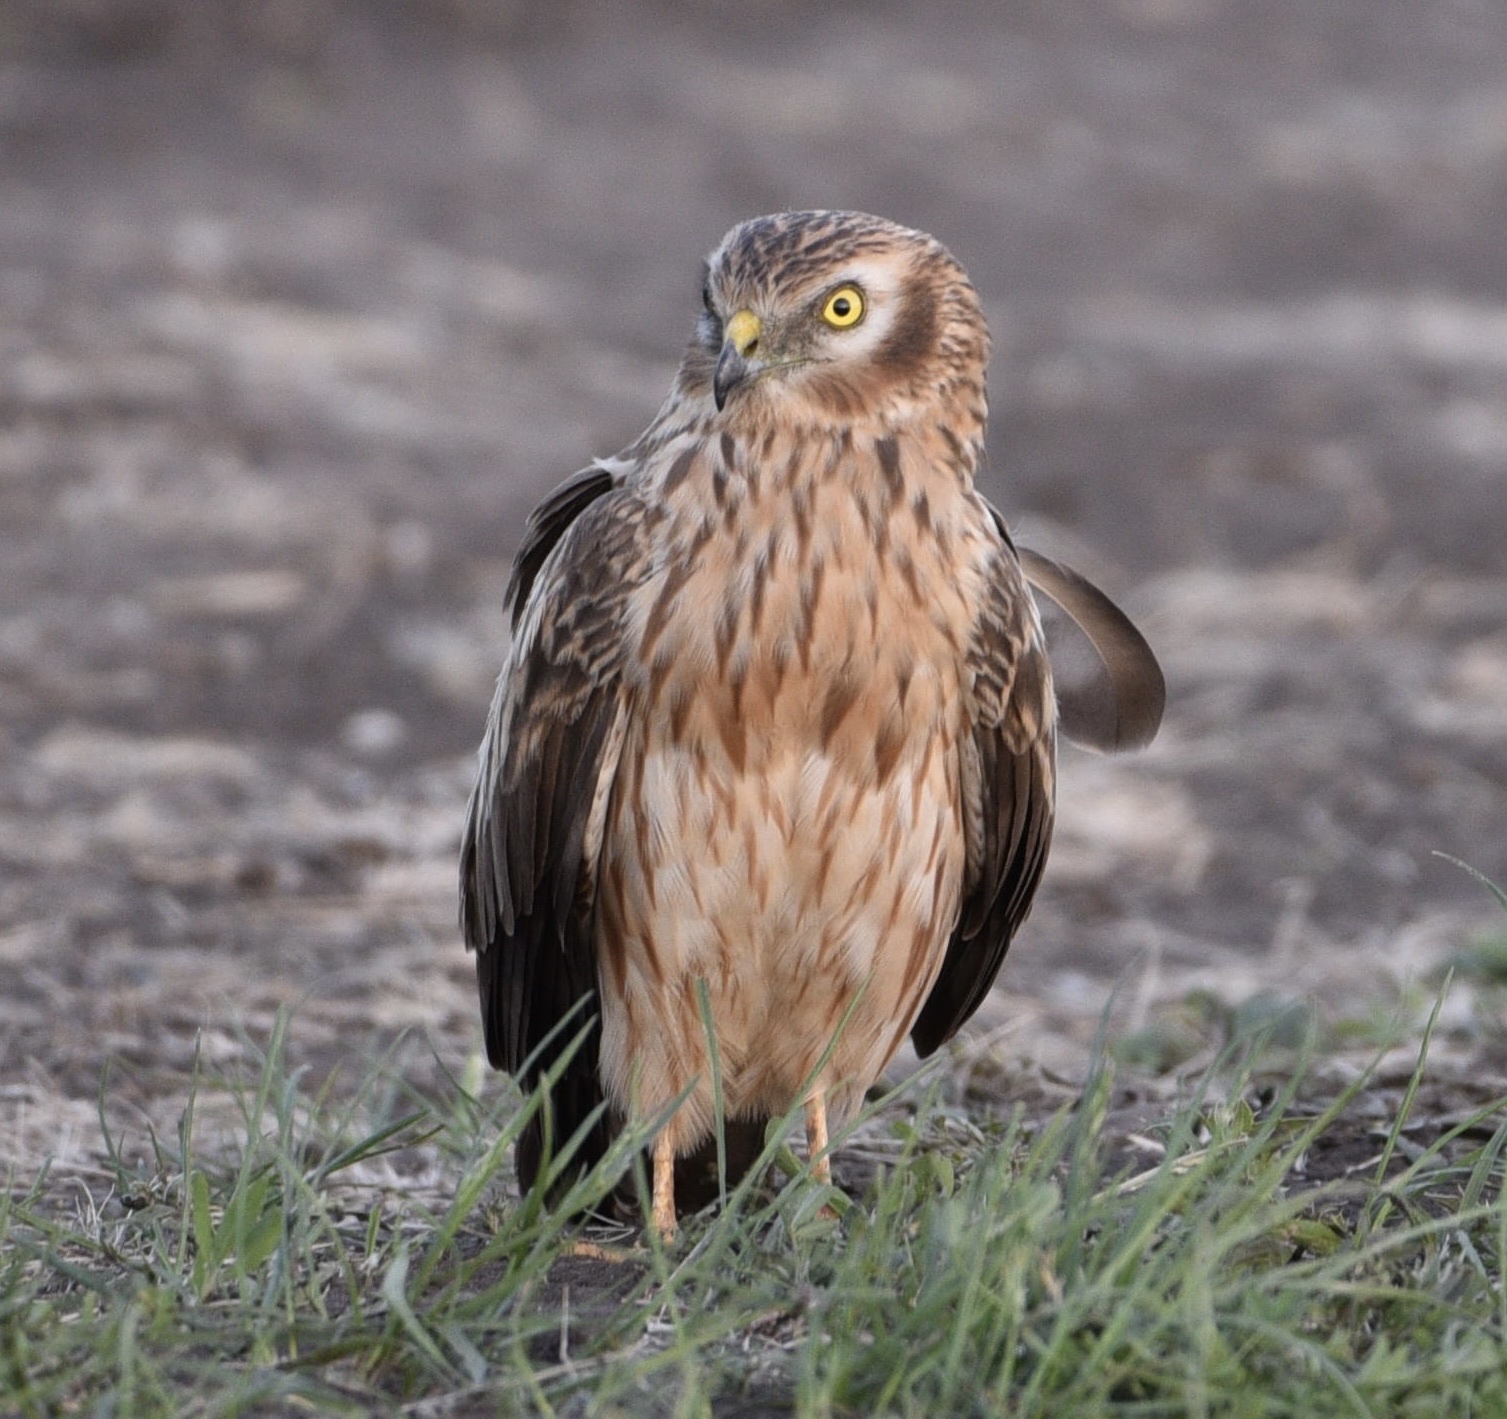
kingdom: Animalia
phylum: Chordata
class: Aves
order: Accipitriformes
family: Accipitridae
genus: Circus
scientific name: Circus pygargus
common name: Montagu's harrier
